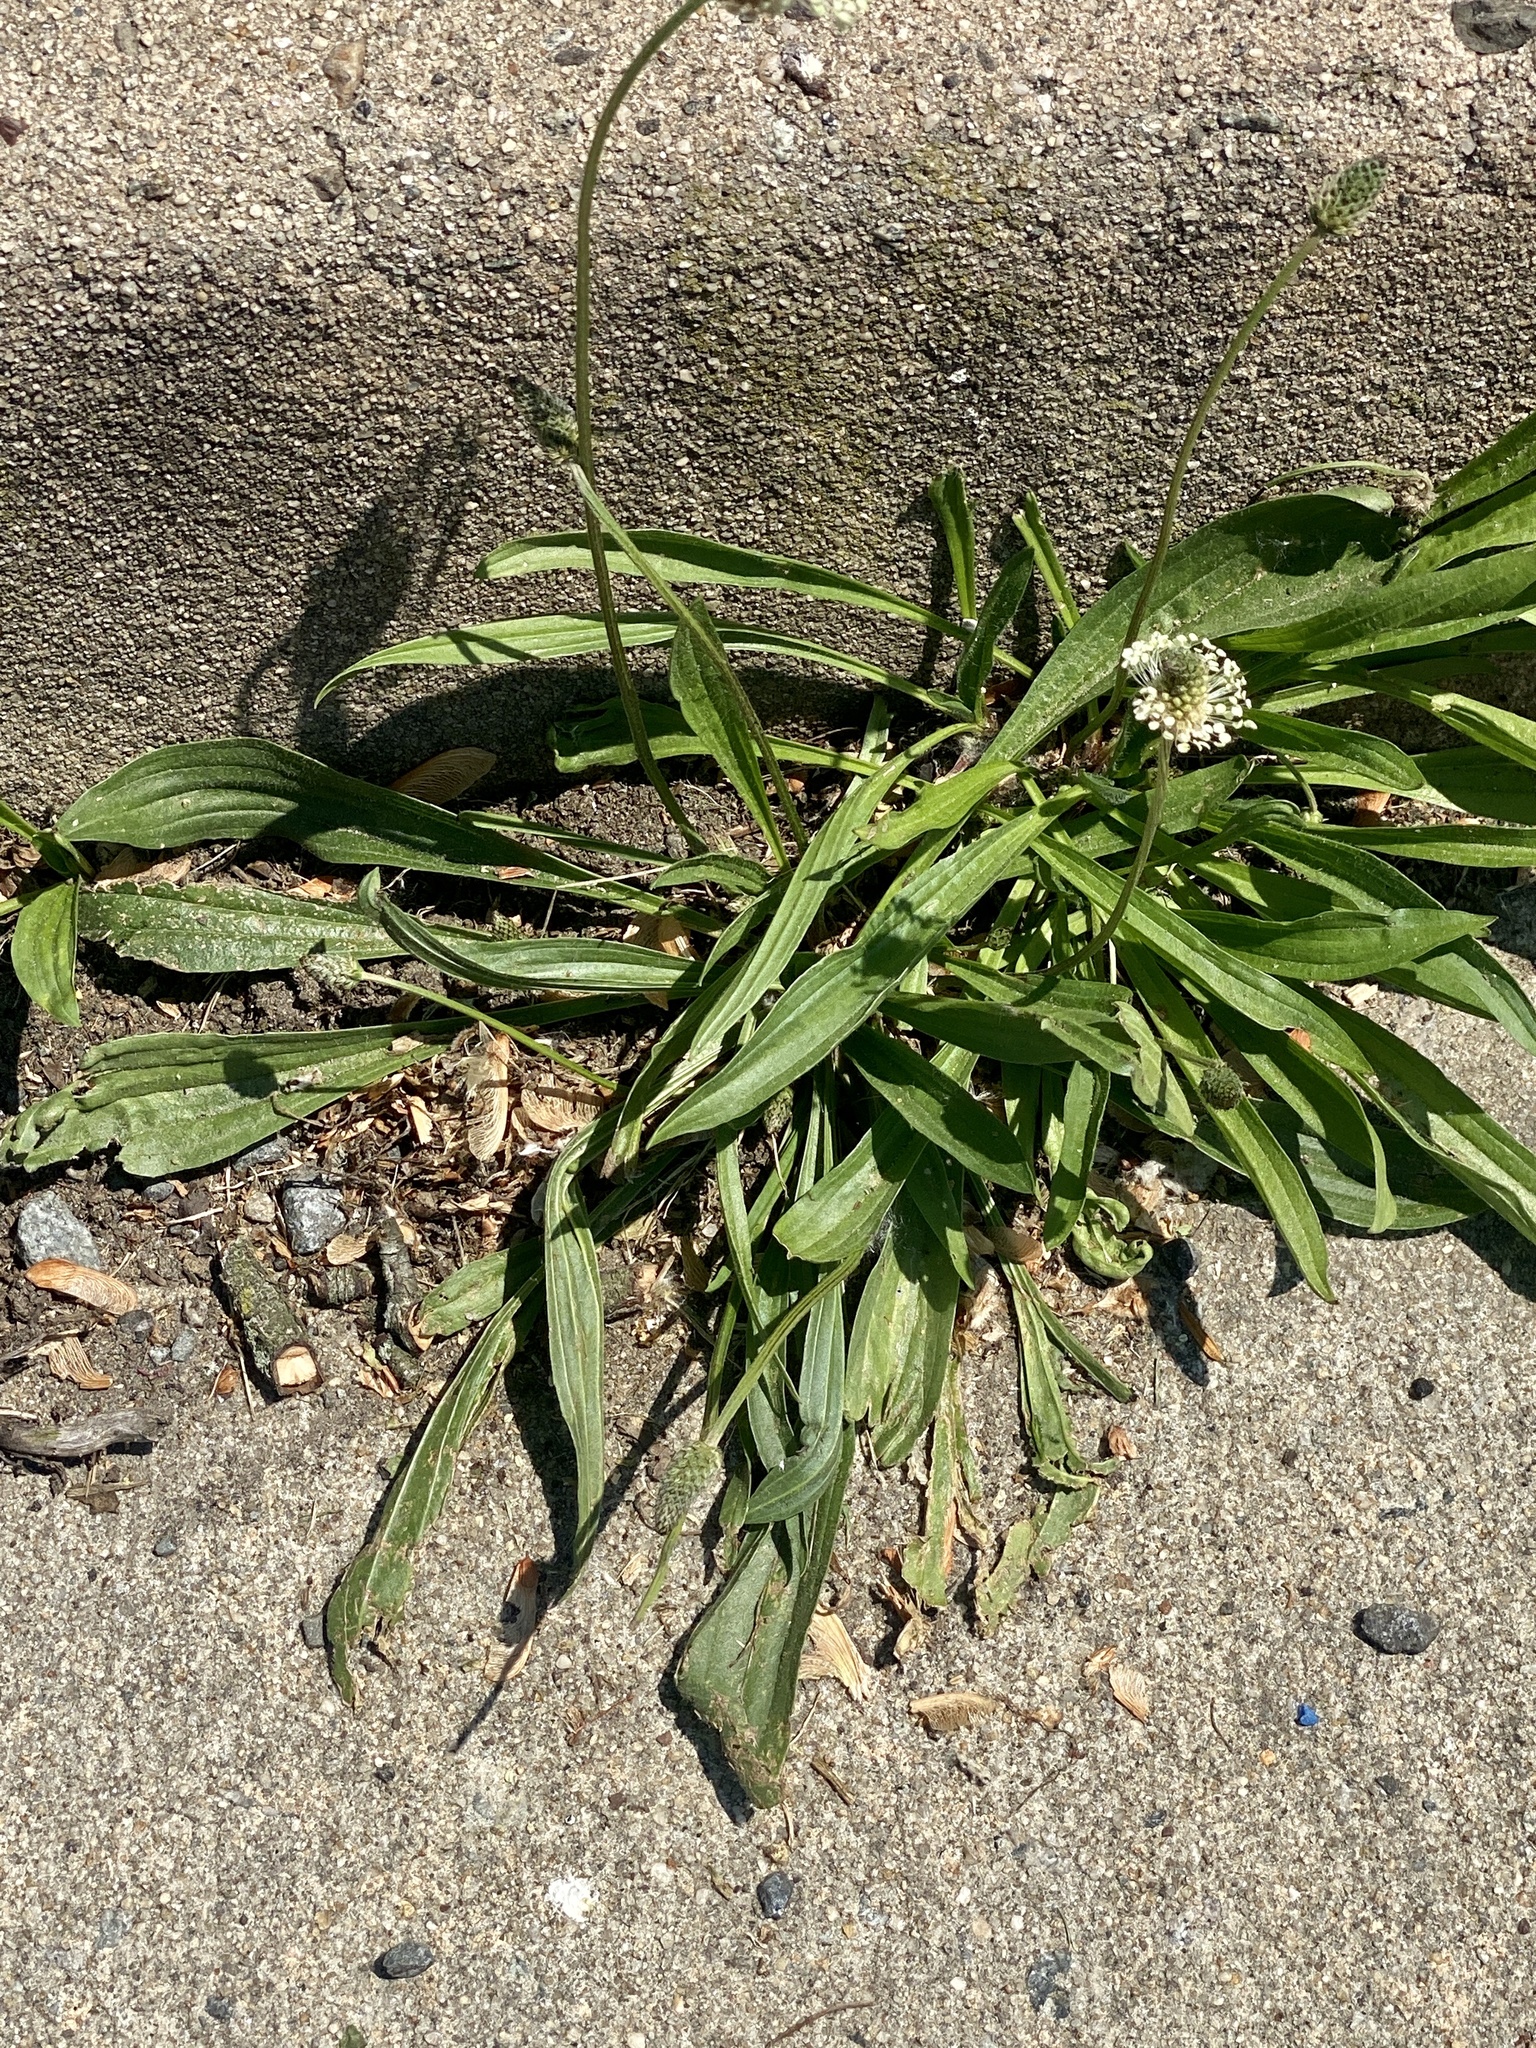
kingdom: Plantae
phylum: Tracheophyta
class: Magnoliopsida
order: Lamiales
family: Plantaginaceae
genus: Plantago
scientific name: Plantago lanceolata
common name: Ribwort plantain
